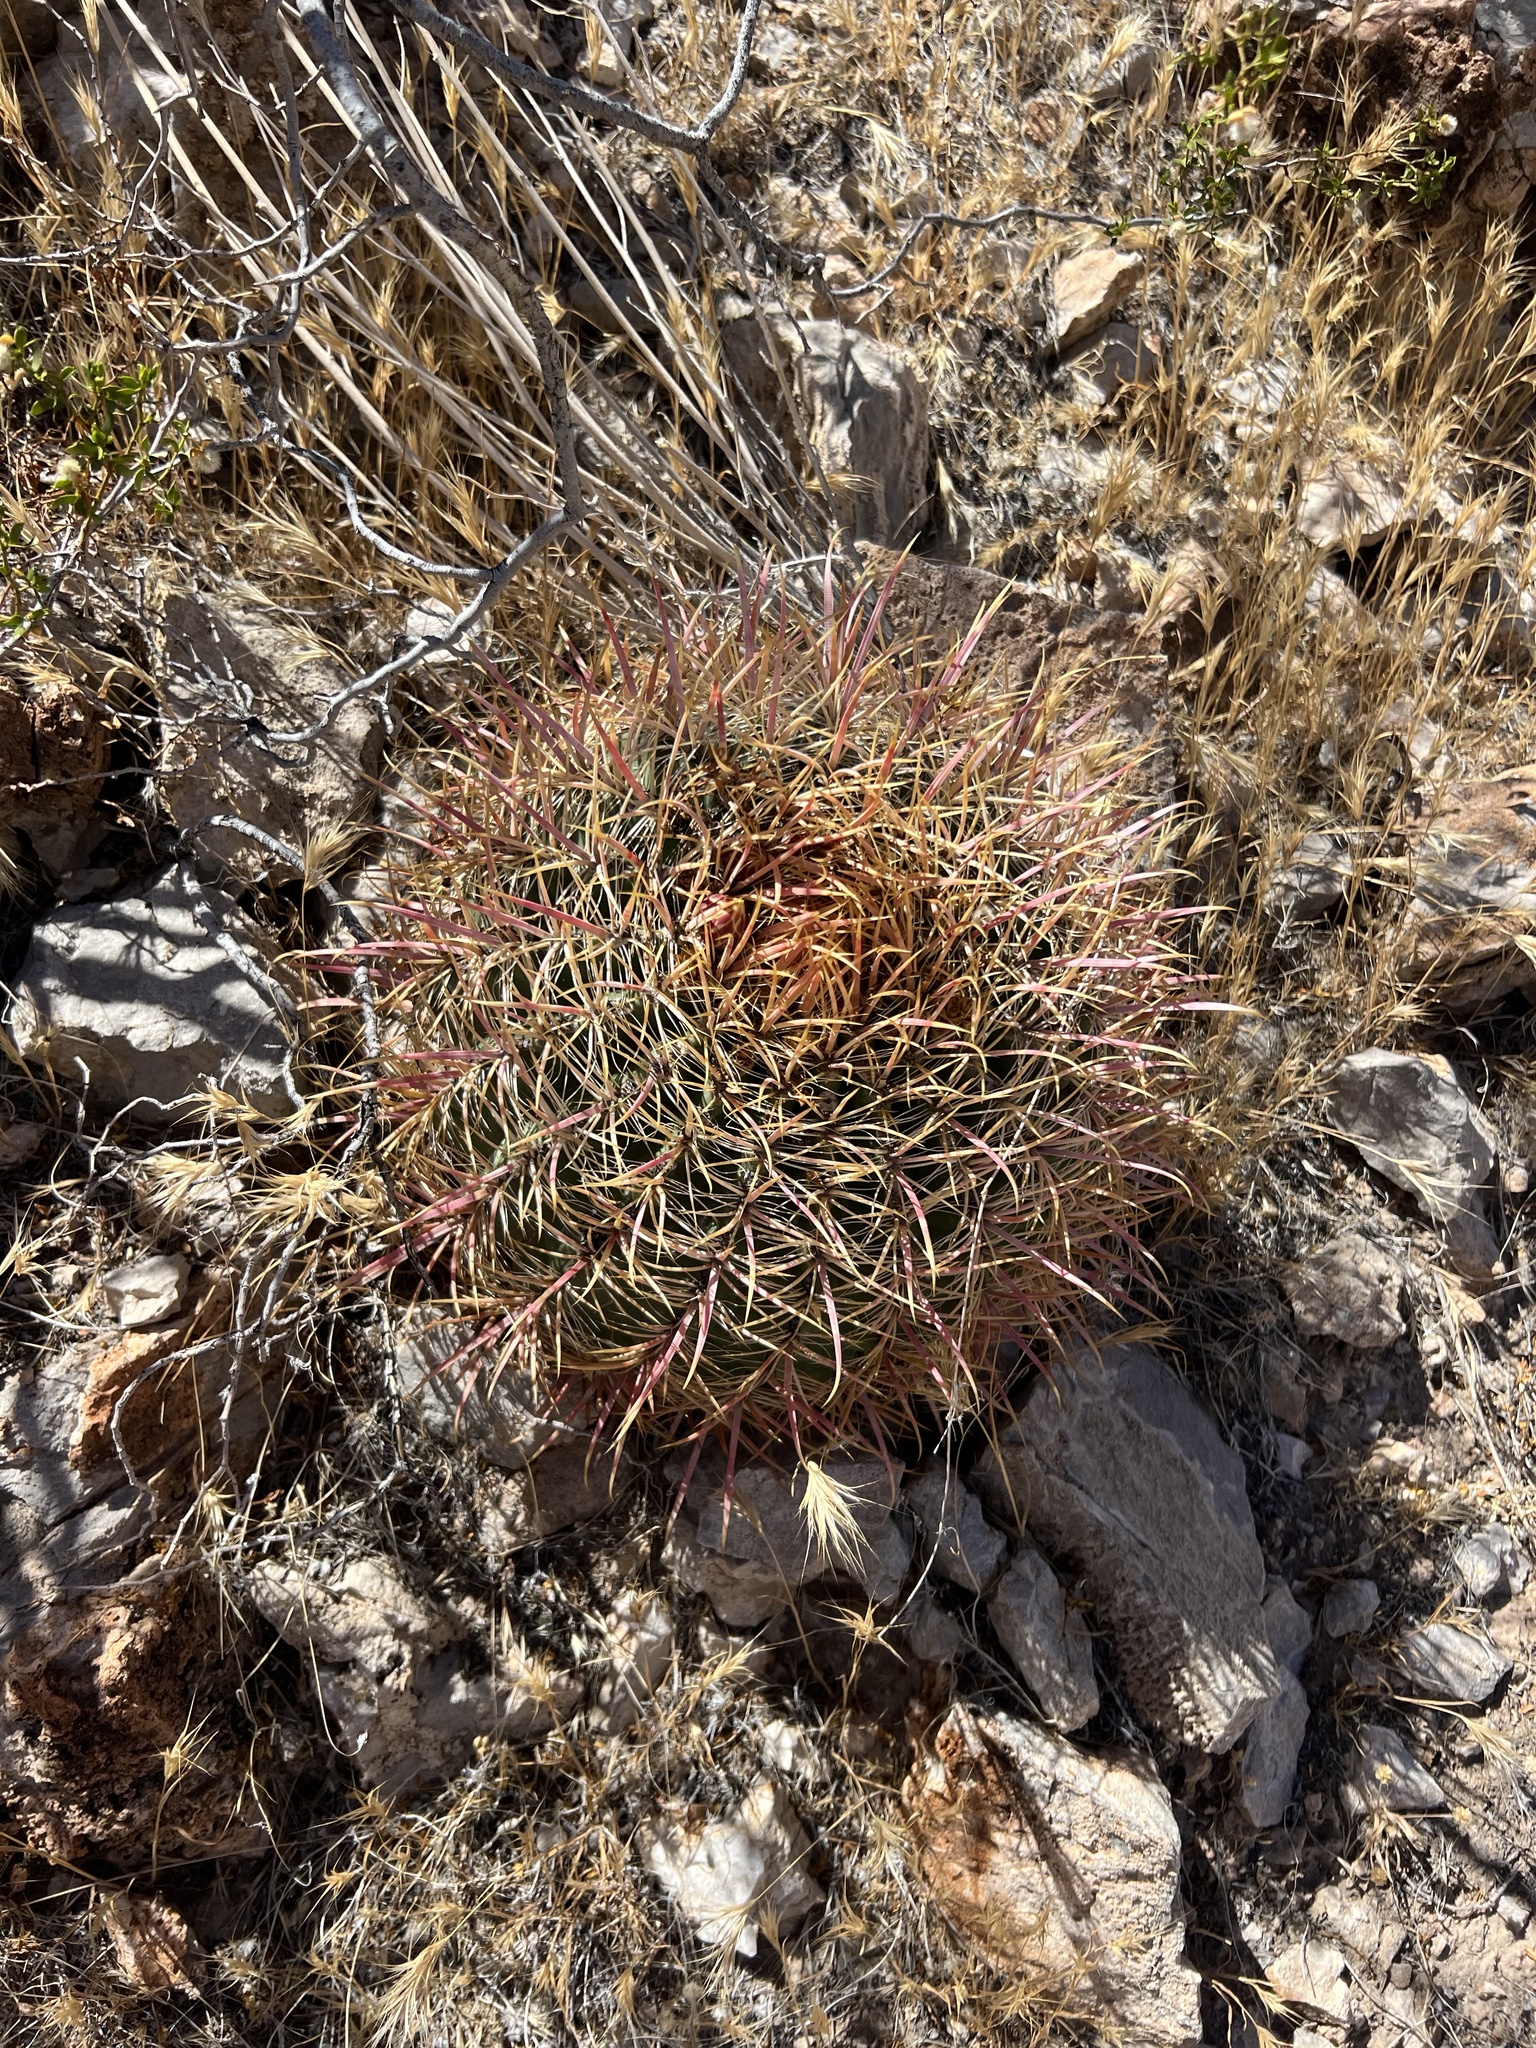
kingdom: Plantae
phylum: Tracheophyta
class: Magnoliopsida
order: Caryophyllales
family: Cactaceae
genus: Ferocactus
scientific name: Ferocactus cylindraceus
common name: California barrel cactus
